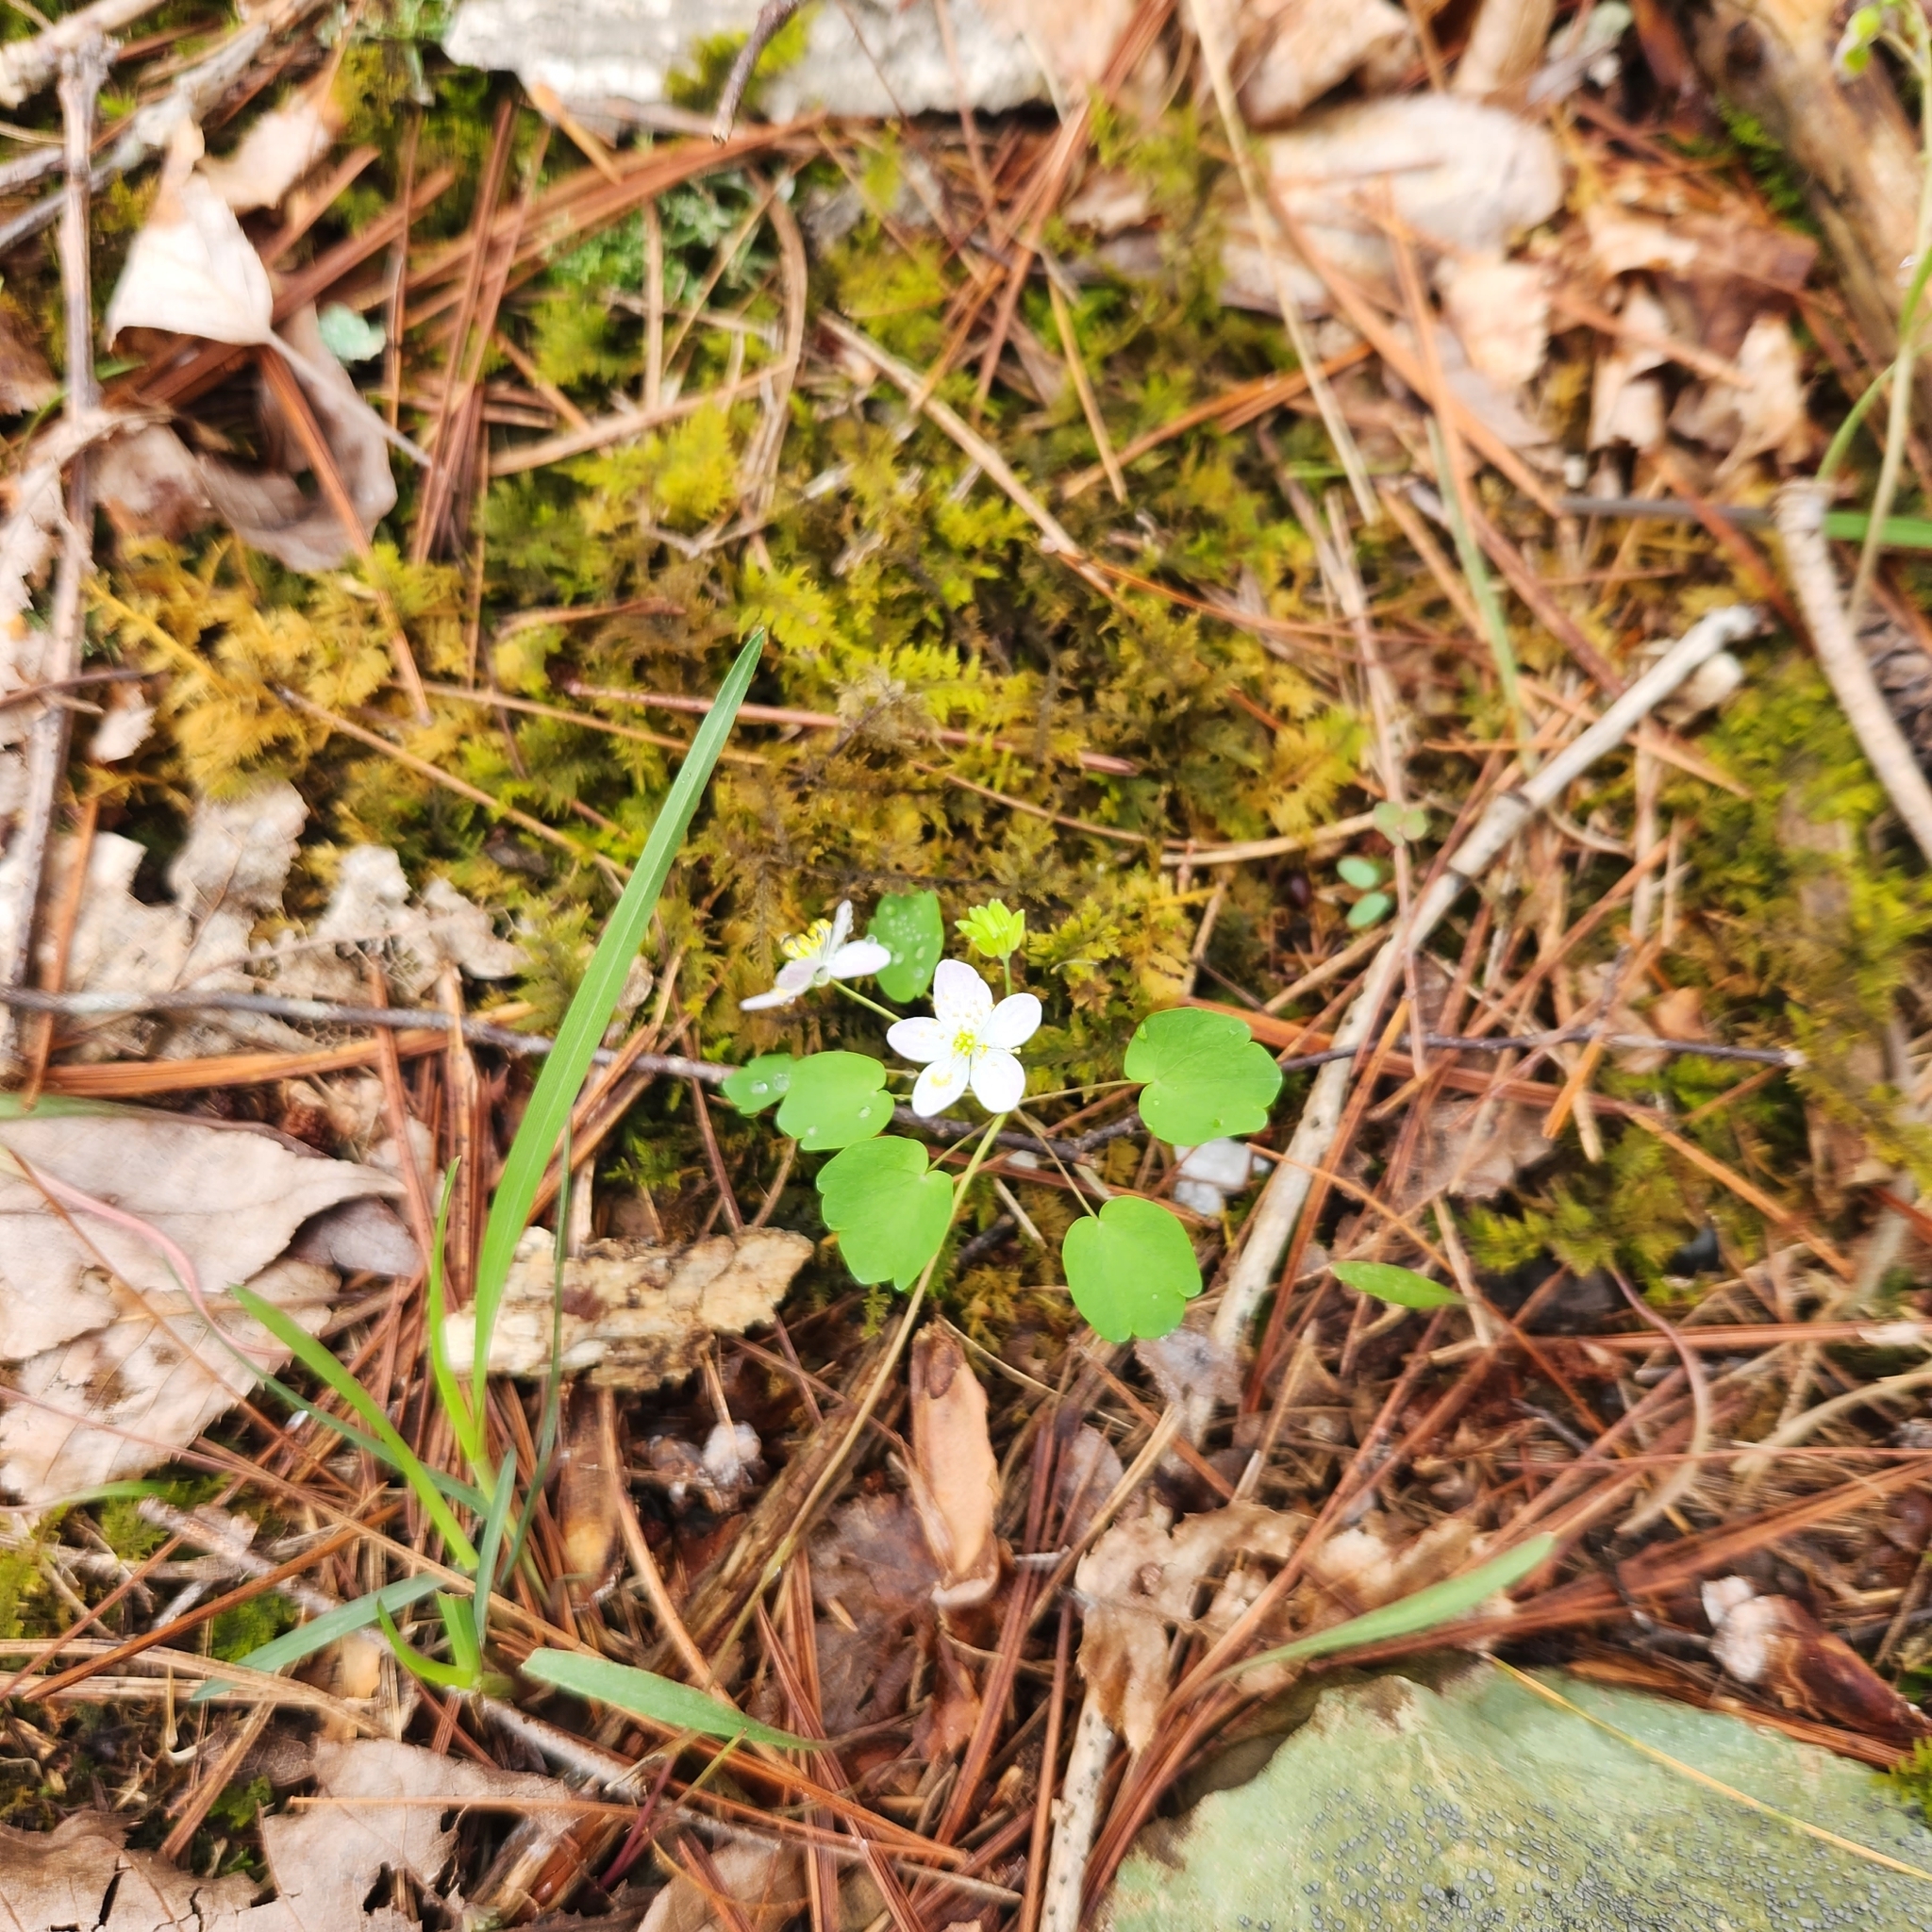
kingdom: Plantae
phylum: Tracheophyta
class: Magnoliopsida
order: Ranunculales
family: Ranunculaceae
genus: Thalictrum
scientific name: Thalictrum thalictroides
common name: Rue-anemone
